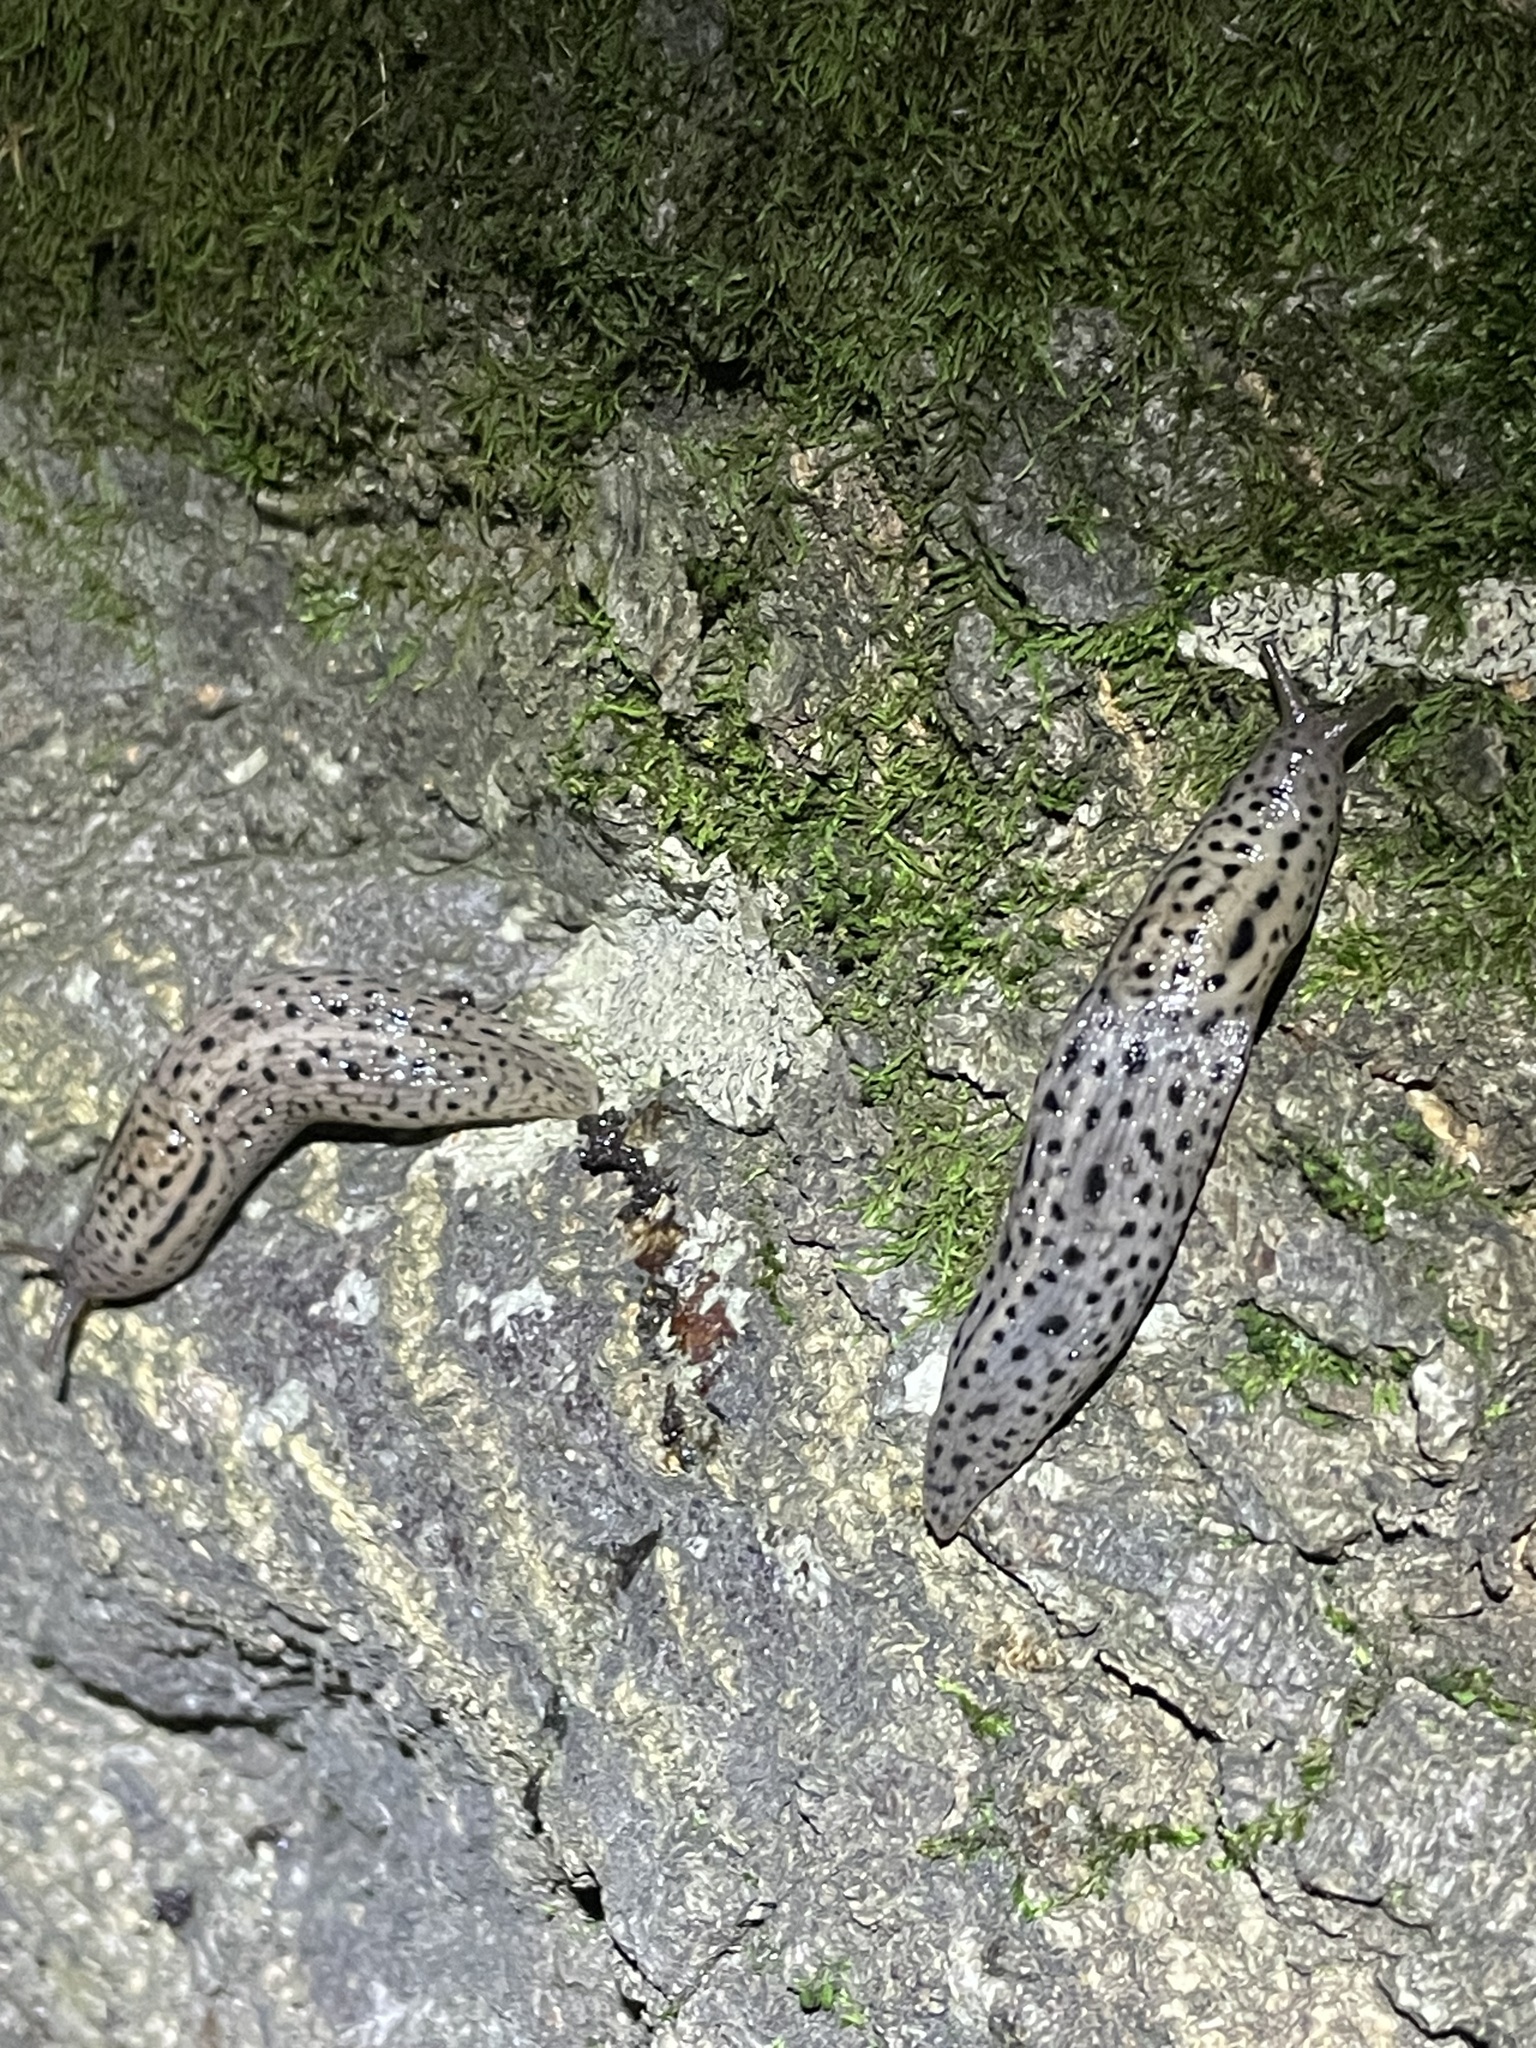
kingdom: Animalia
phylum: Mollusca
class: Gastropoda
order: Stylommatophora
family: Limacidae
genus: Lehmannia
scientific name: Lehmannia marginata
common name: Tree slug
